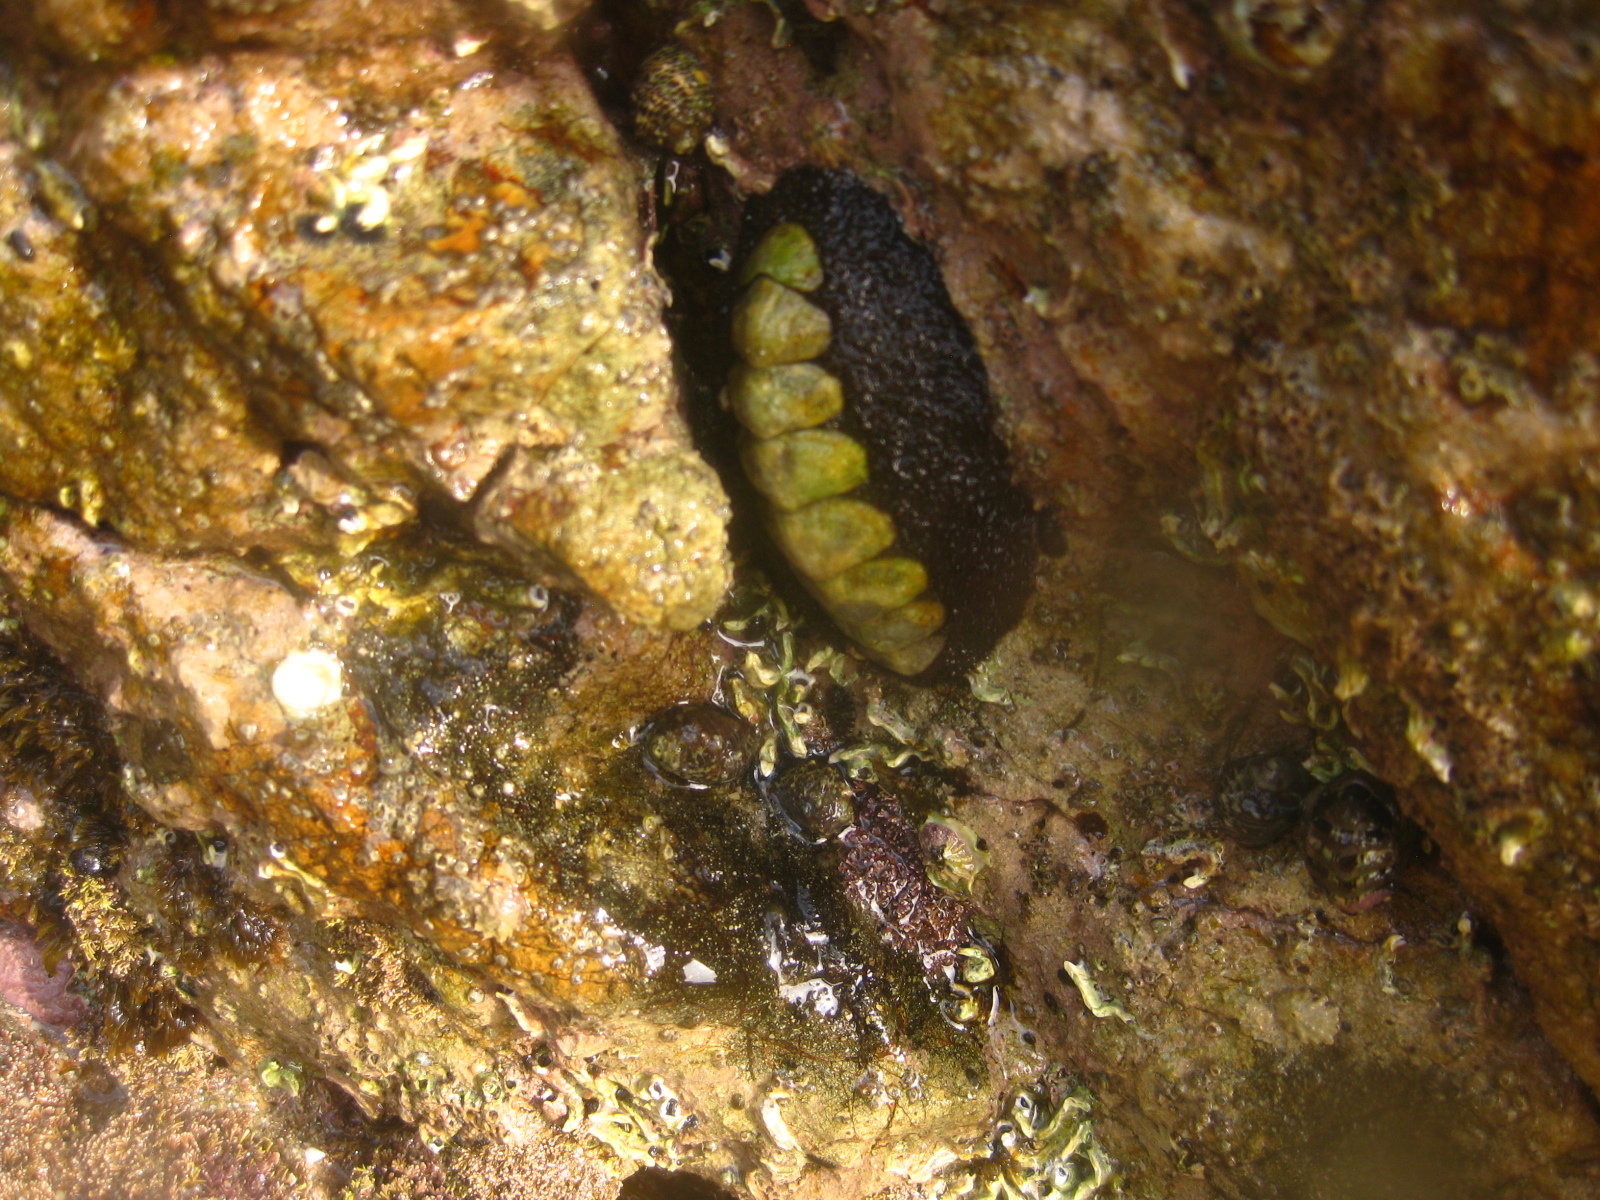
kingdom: Animalia
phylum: Mollusca
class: Polyplacophora
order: Chitonida
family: Mopaliidae
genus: Plaxiphora
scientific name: Plaxiphora obtecta
